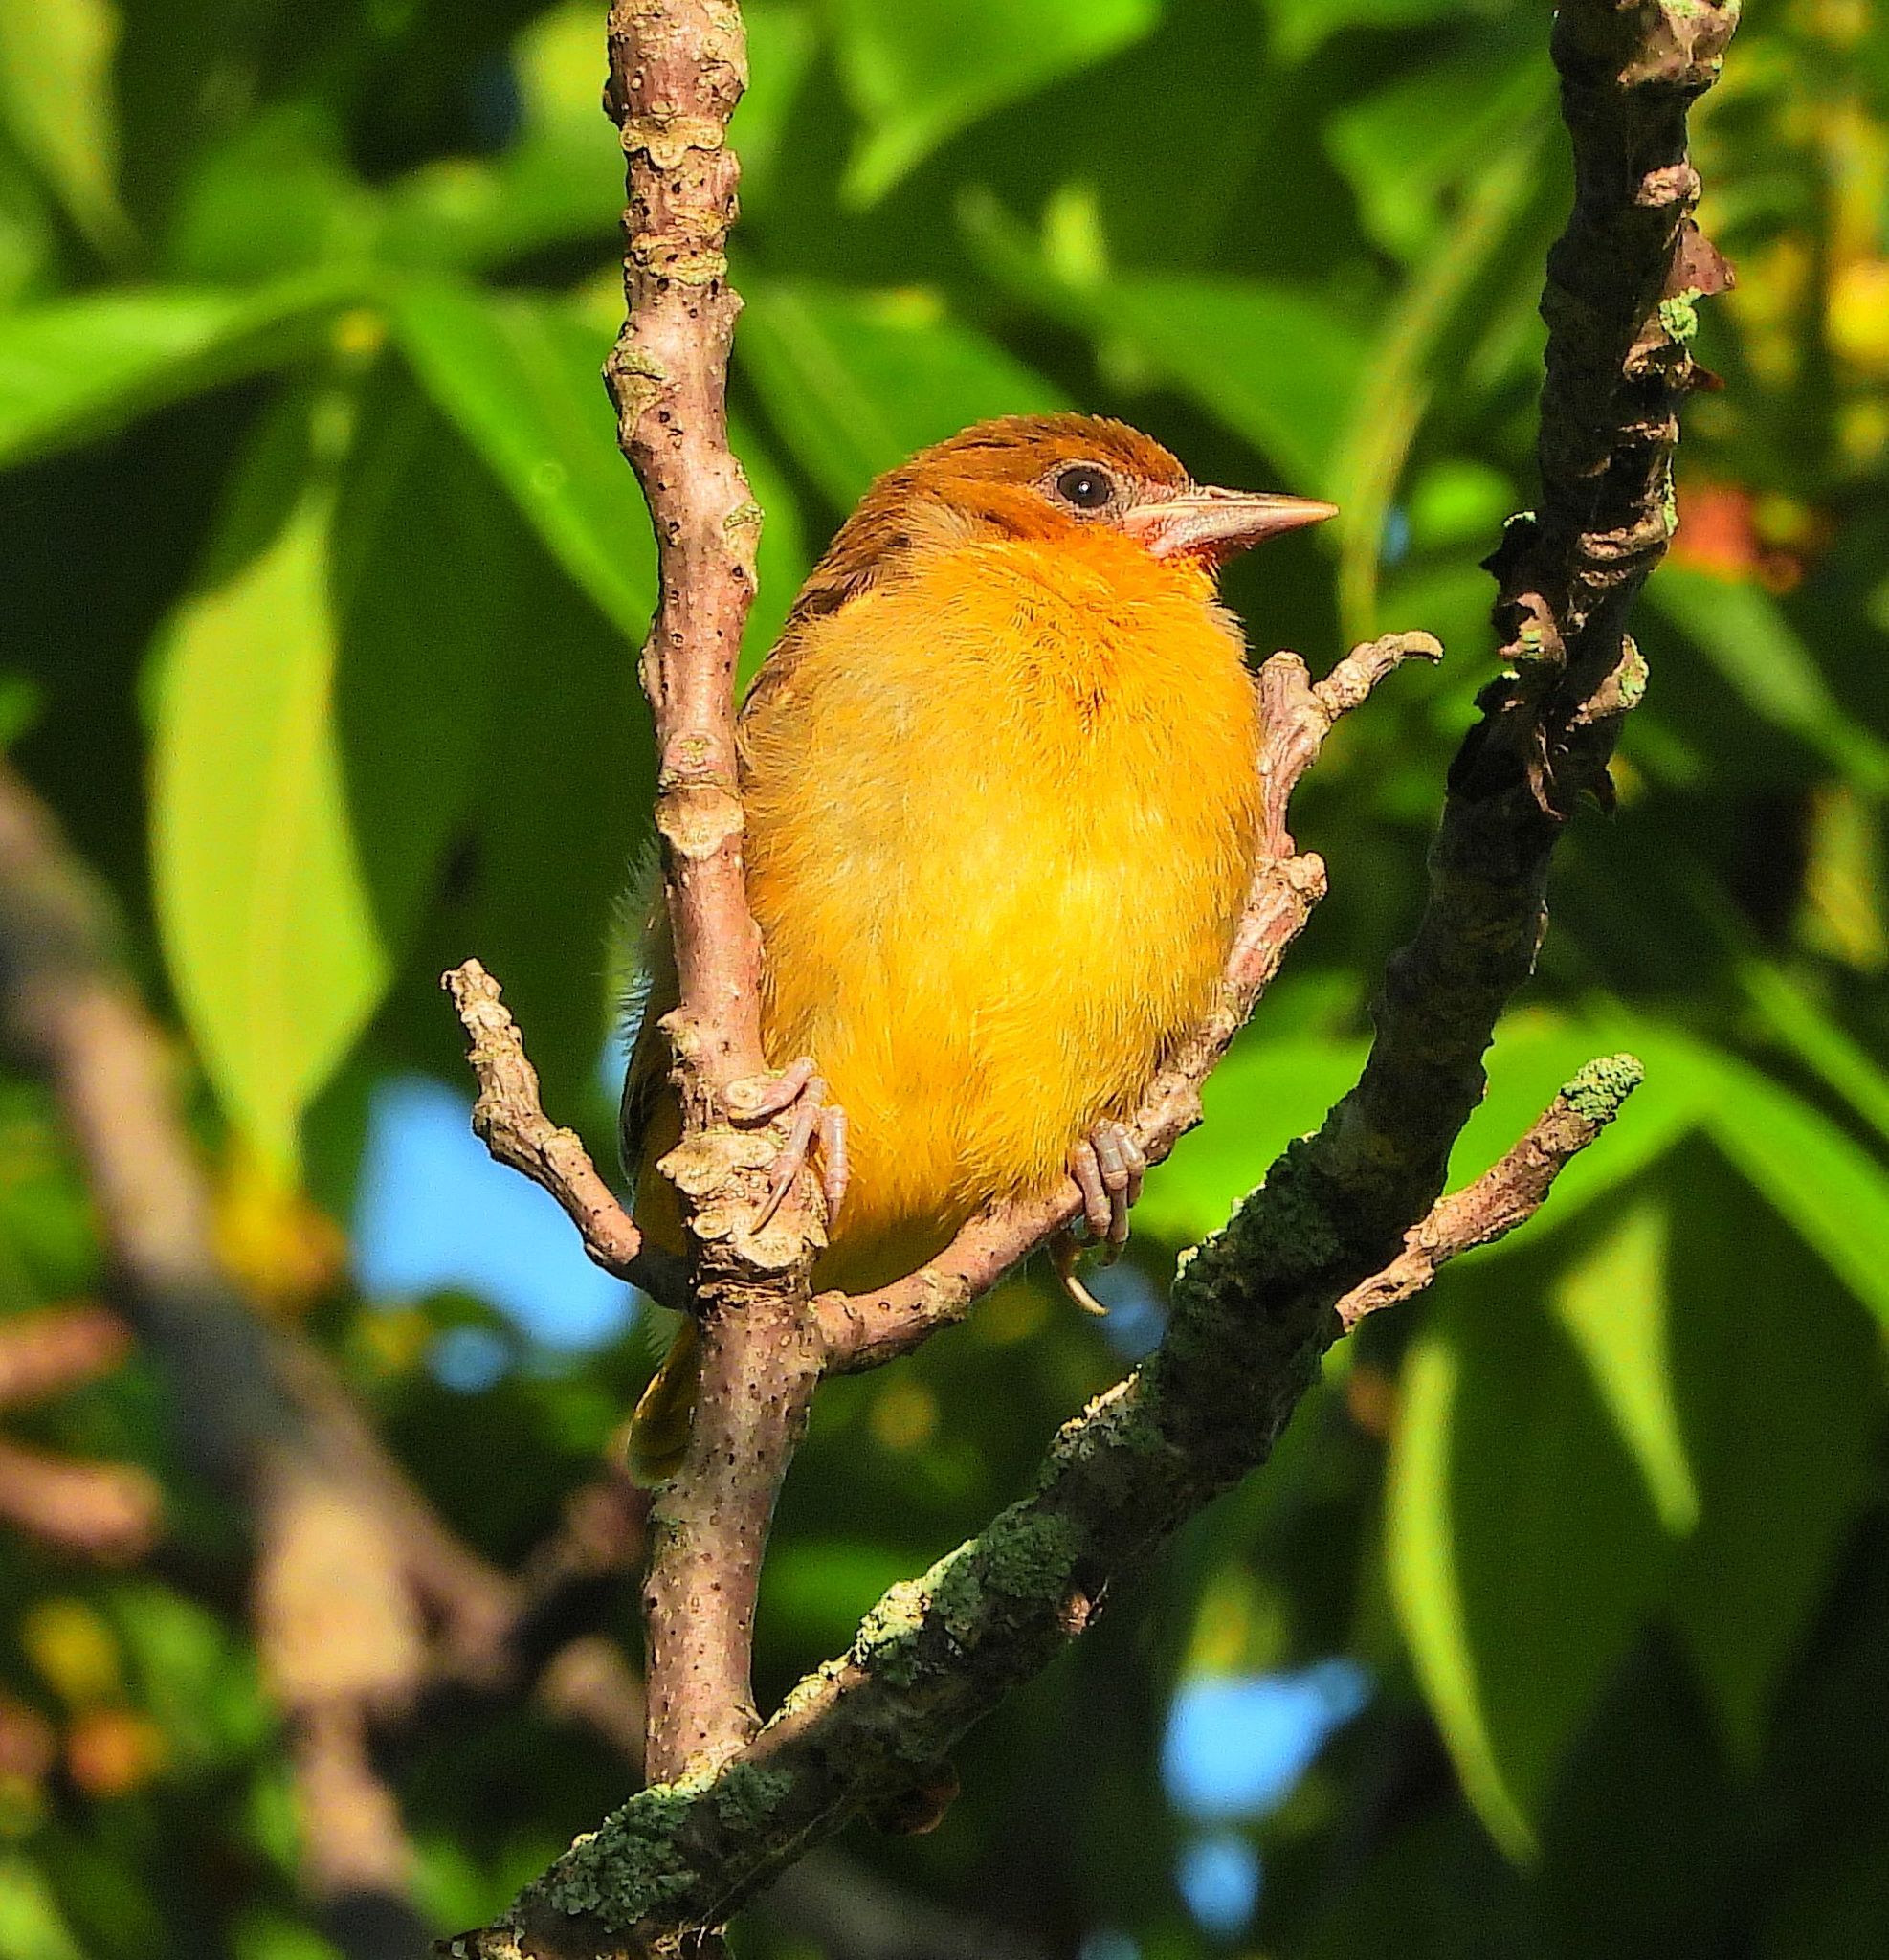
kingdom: Animalia
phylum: Chordata
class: Aves
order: Passeriformes
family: Icteridae
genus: Icterus
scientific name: Icterus galbula
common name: Baltimore oriole
